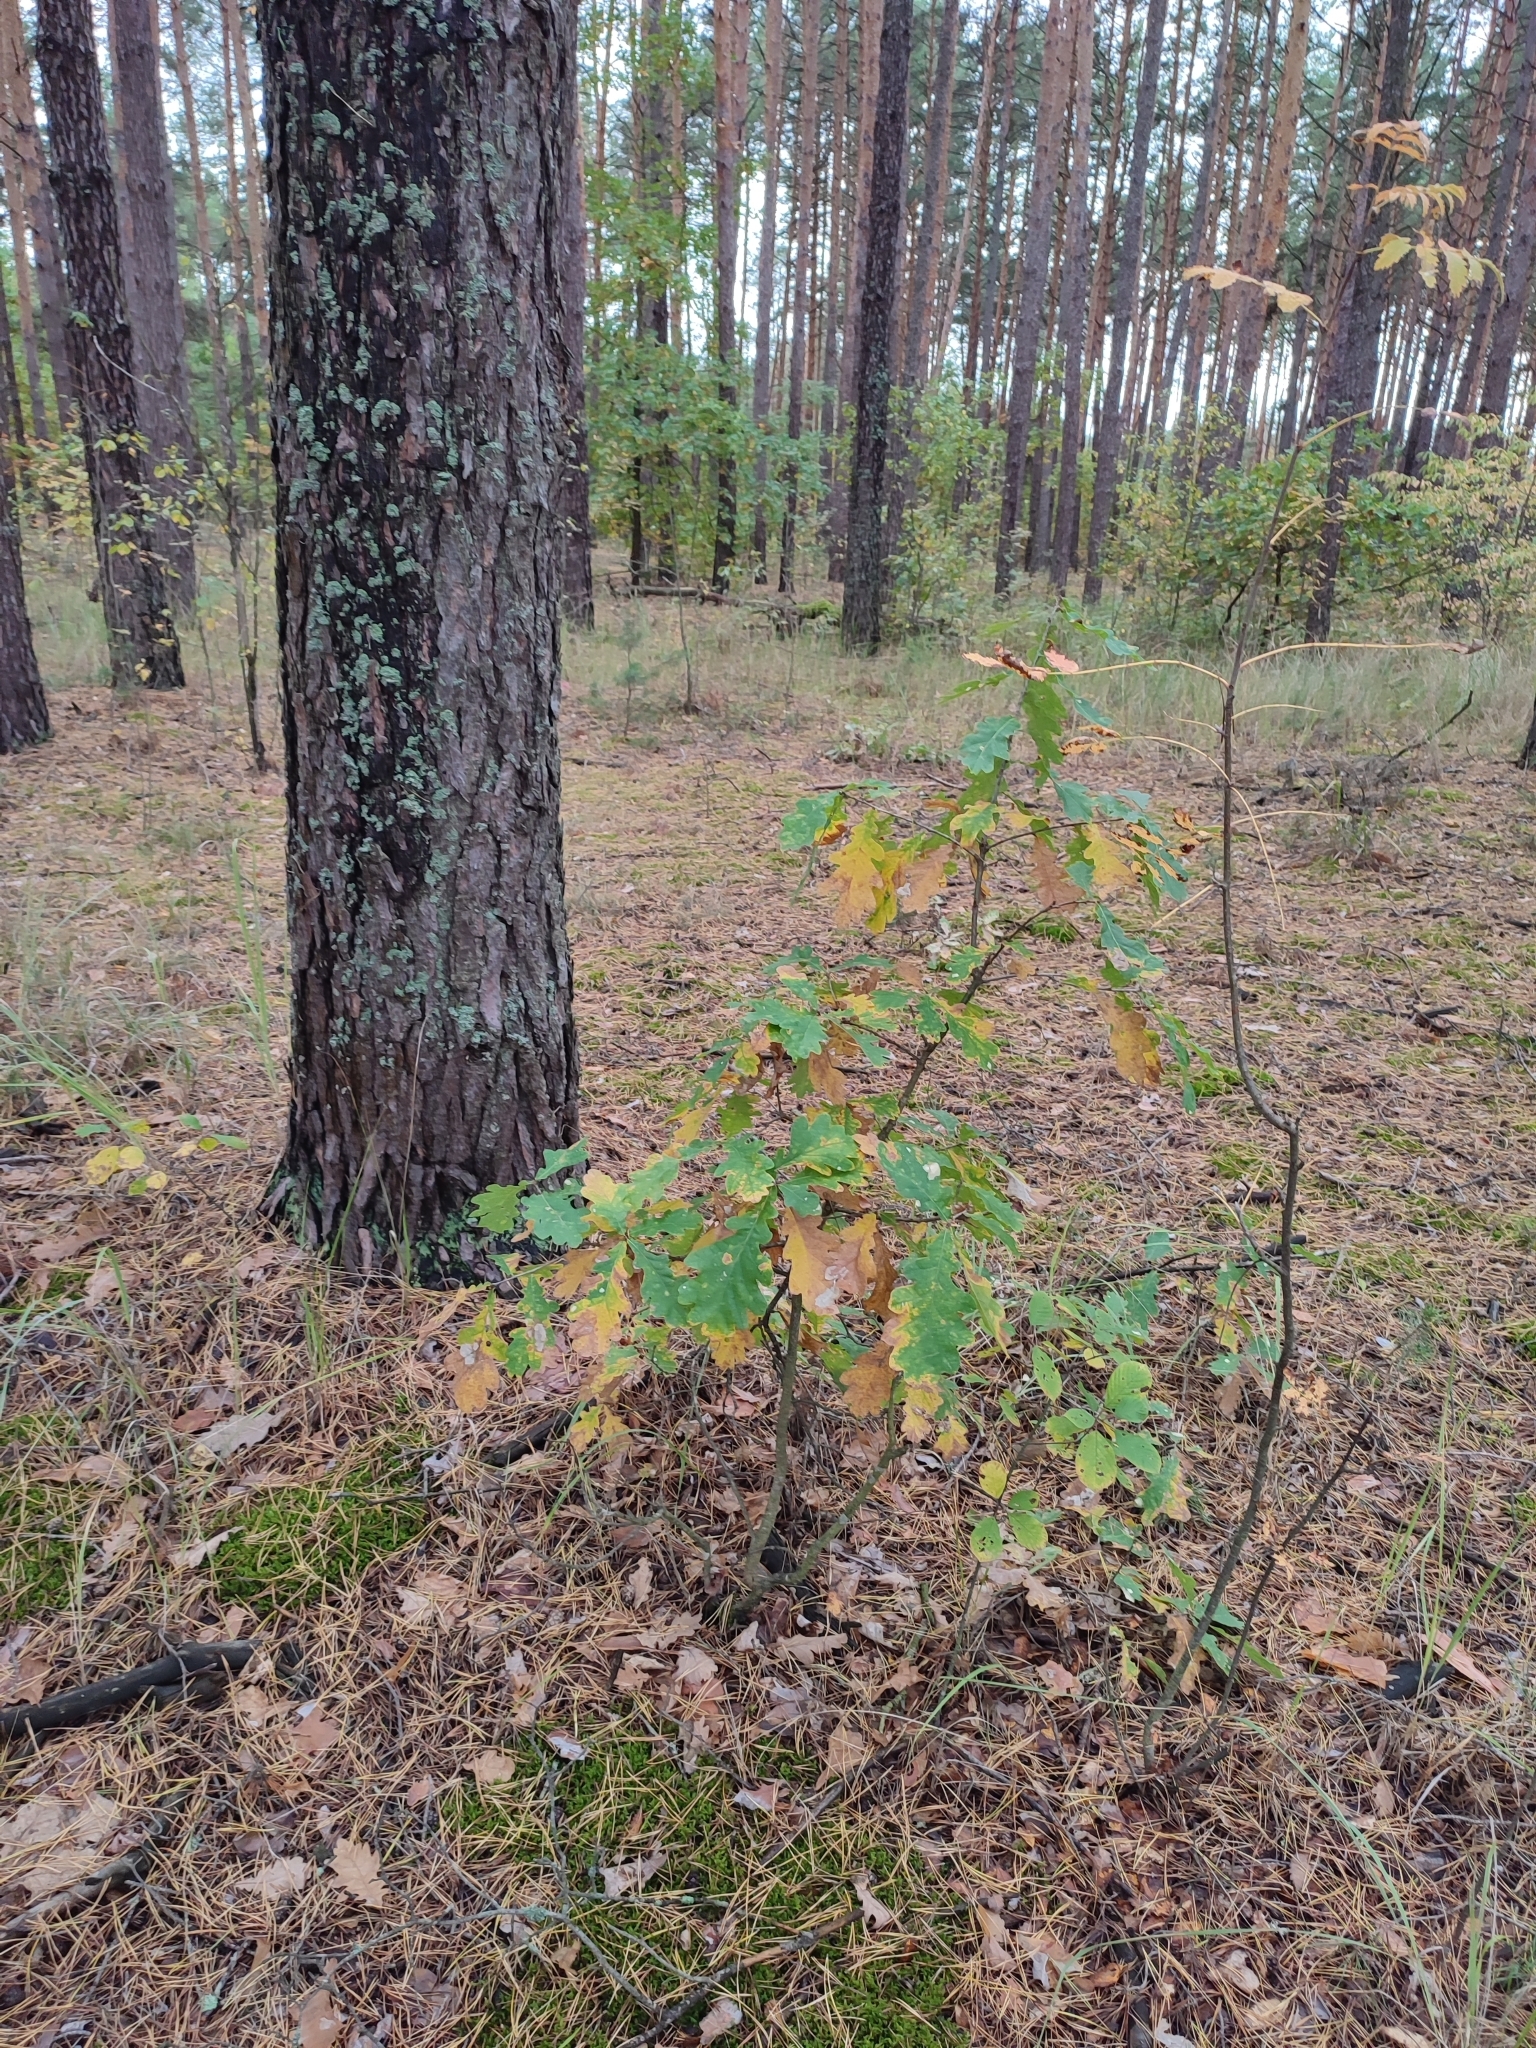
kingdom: Plantae
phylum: Tracheophyta
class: Magnoliopsida
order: Fagales
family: Fagaceae
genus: Quercus
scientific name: Quercus robur
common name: Pedunculate oak
